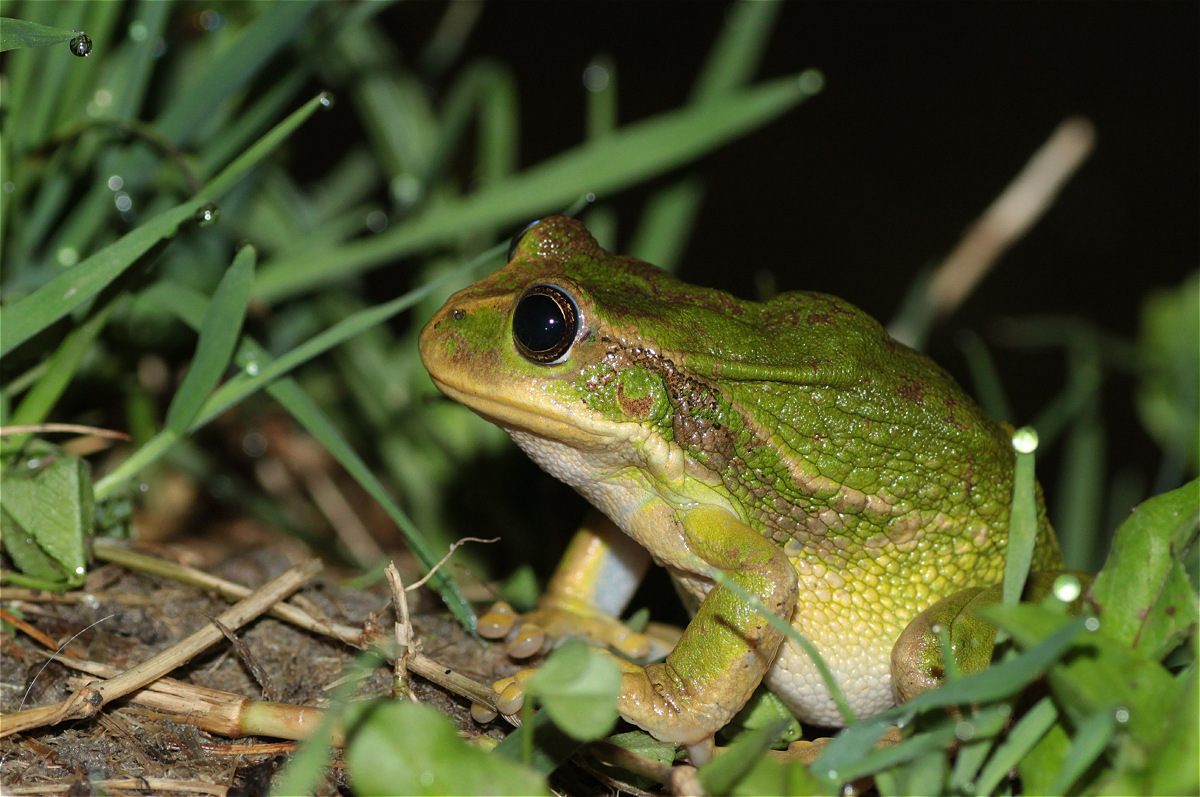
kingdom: Animalia
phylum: Chordata
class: Amphibia
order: Anura
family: Hemiphractidae
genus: Gastrotheca
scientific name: Gastrotheca cuencana
